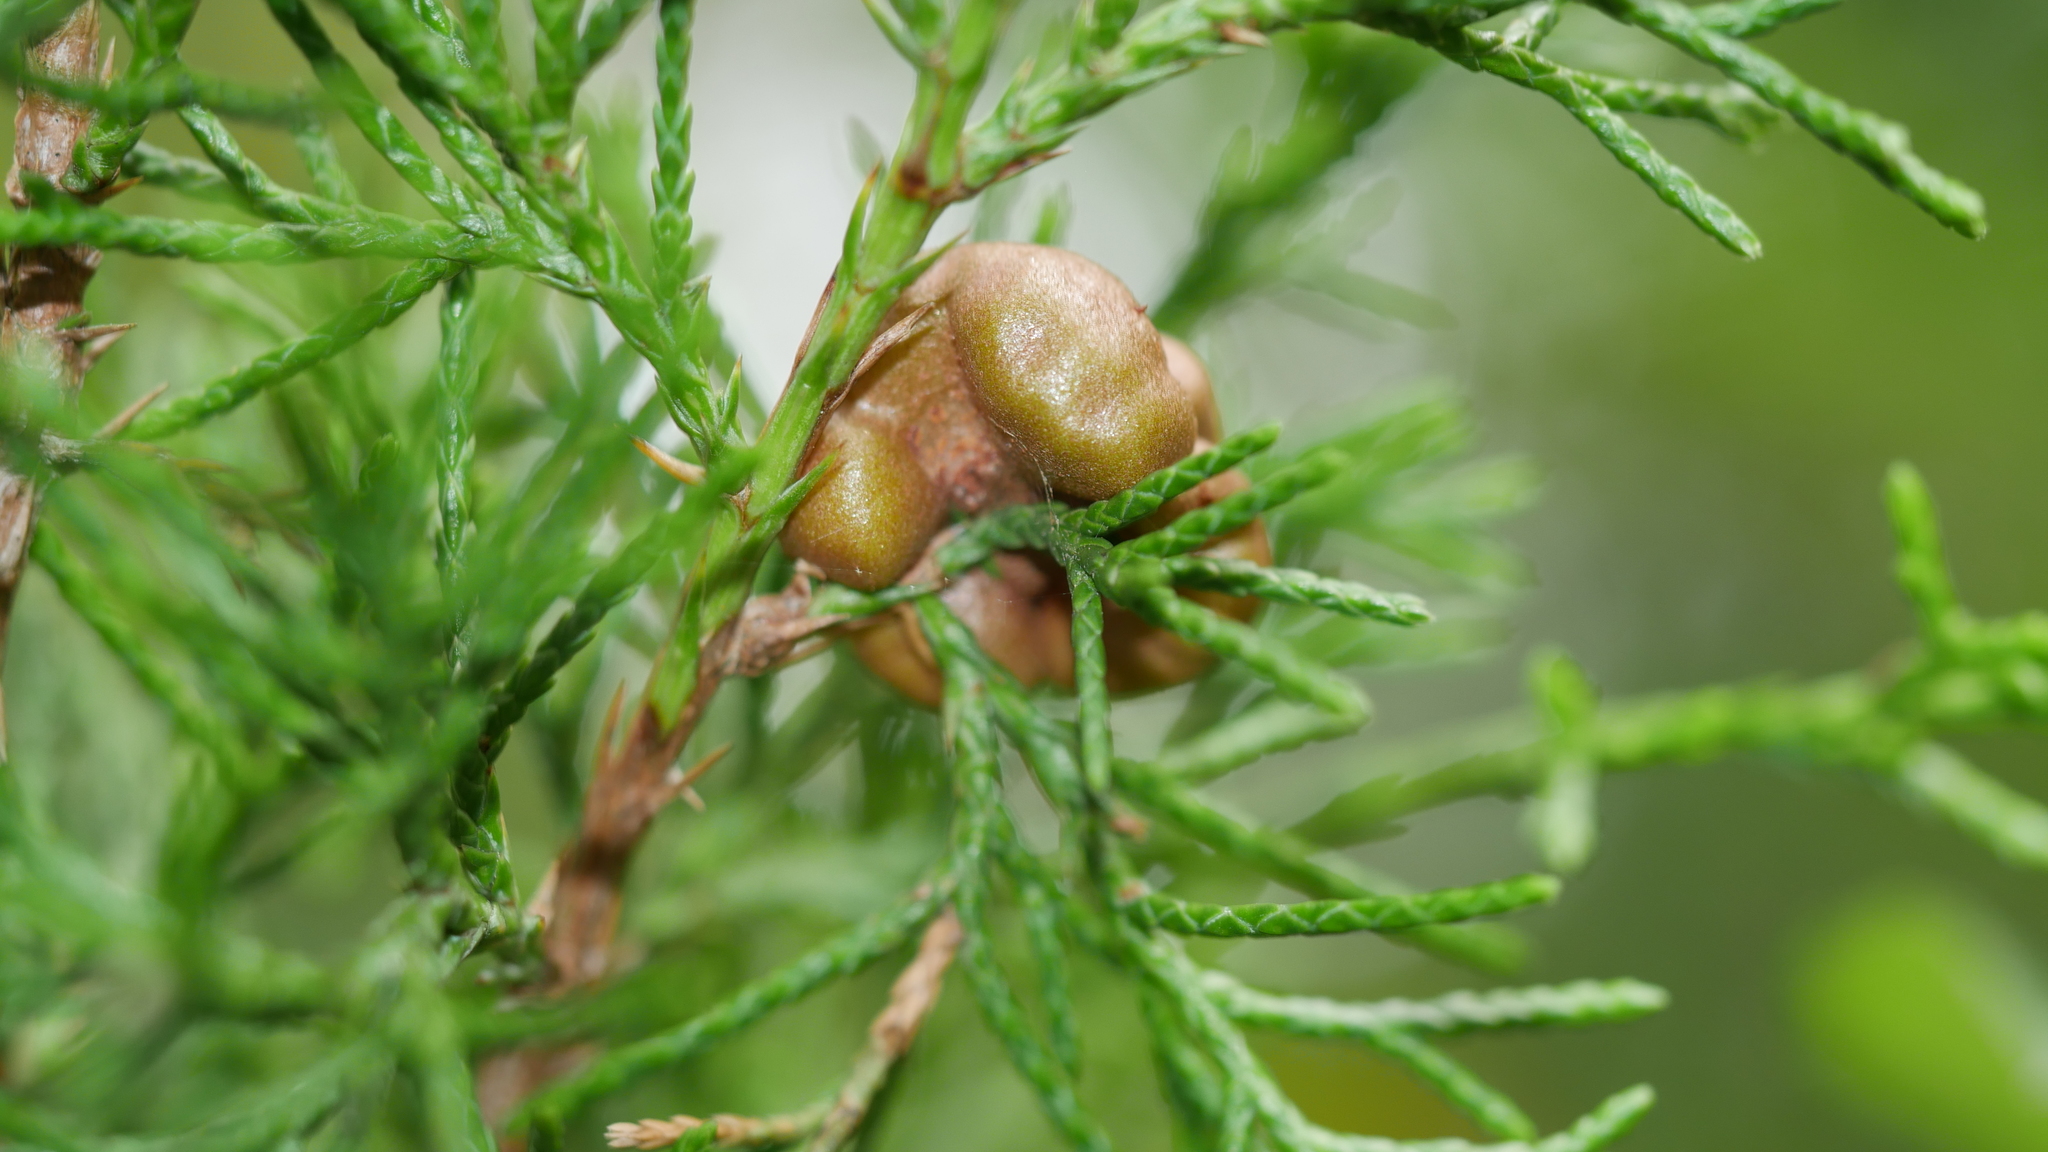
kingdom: Fungi
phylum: Basidiomycota
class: Pucciniomycetes
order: Pucciniales
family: Gymnosporangiaceae
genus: Gymnosporangium
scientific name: Gymnosporangium juniperi-virginianae
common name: Juniper-apple rust
